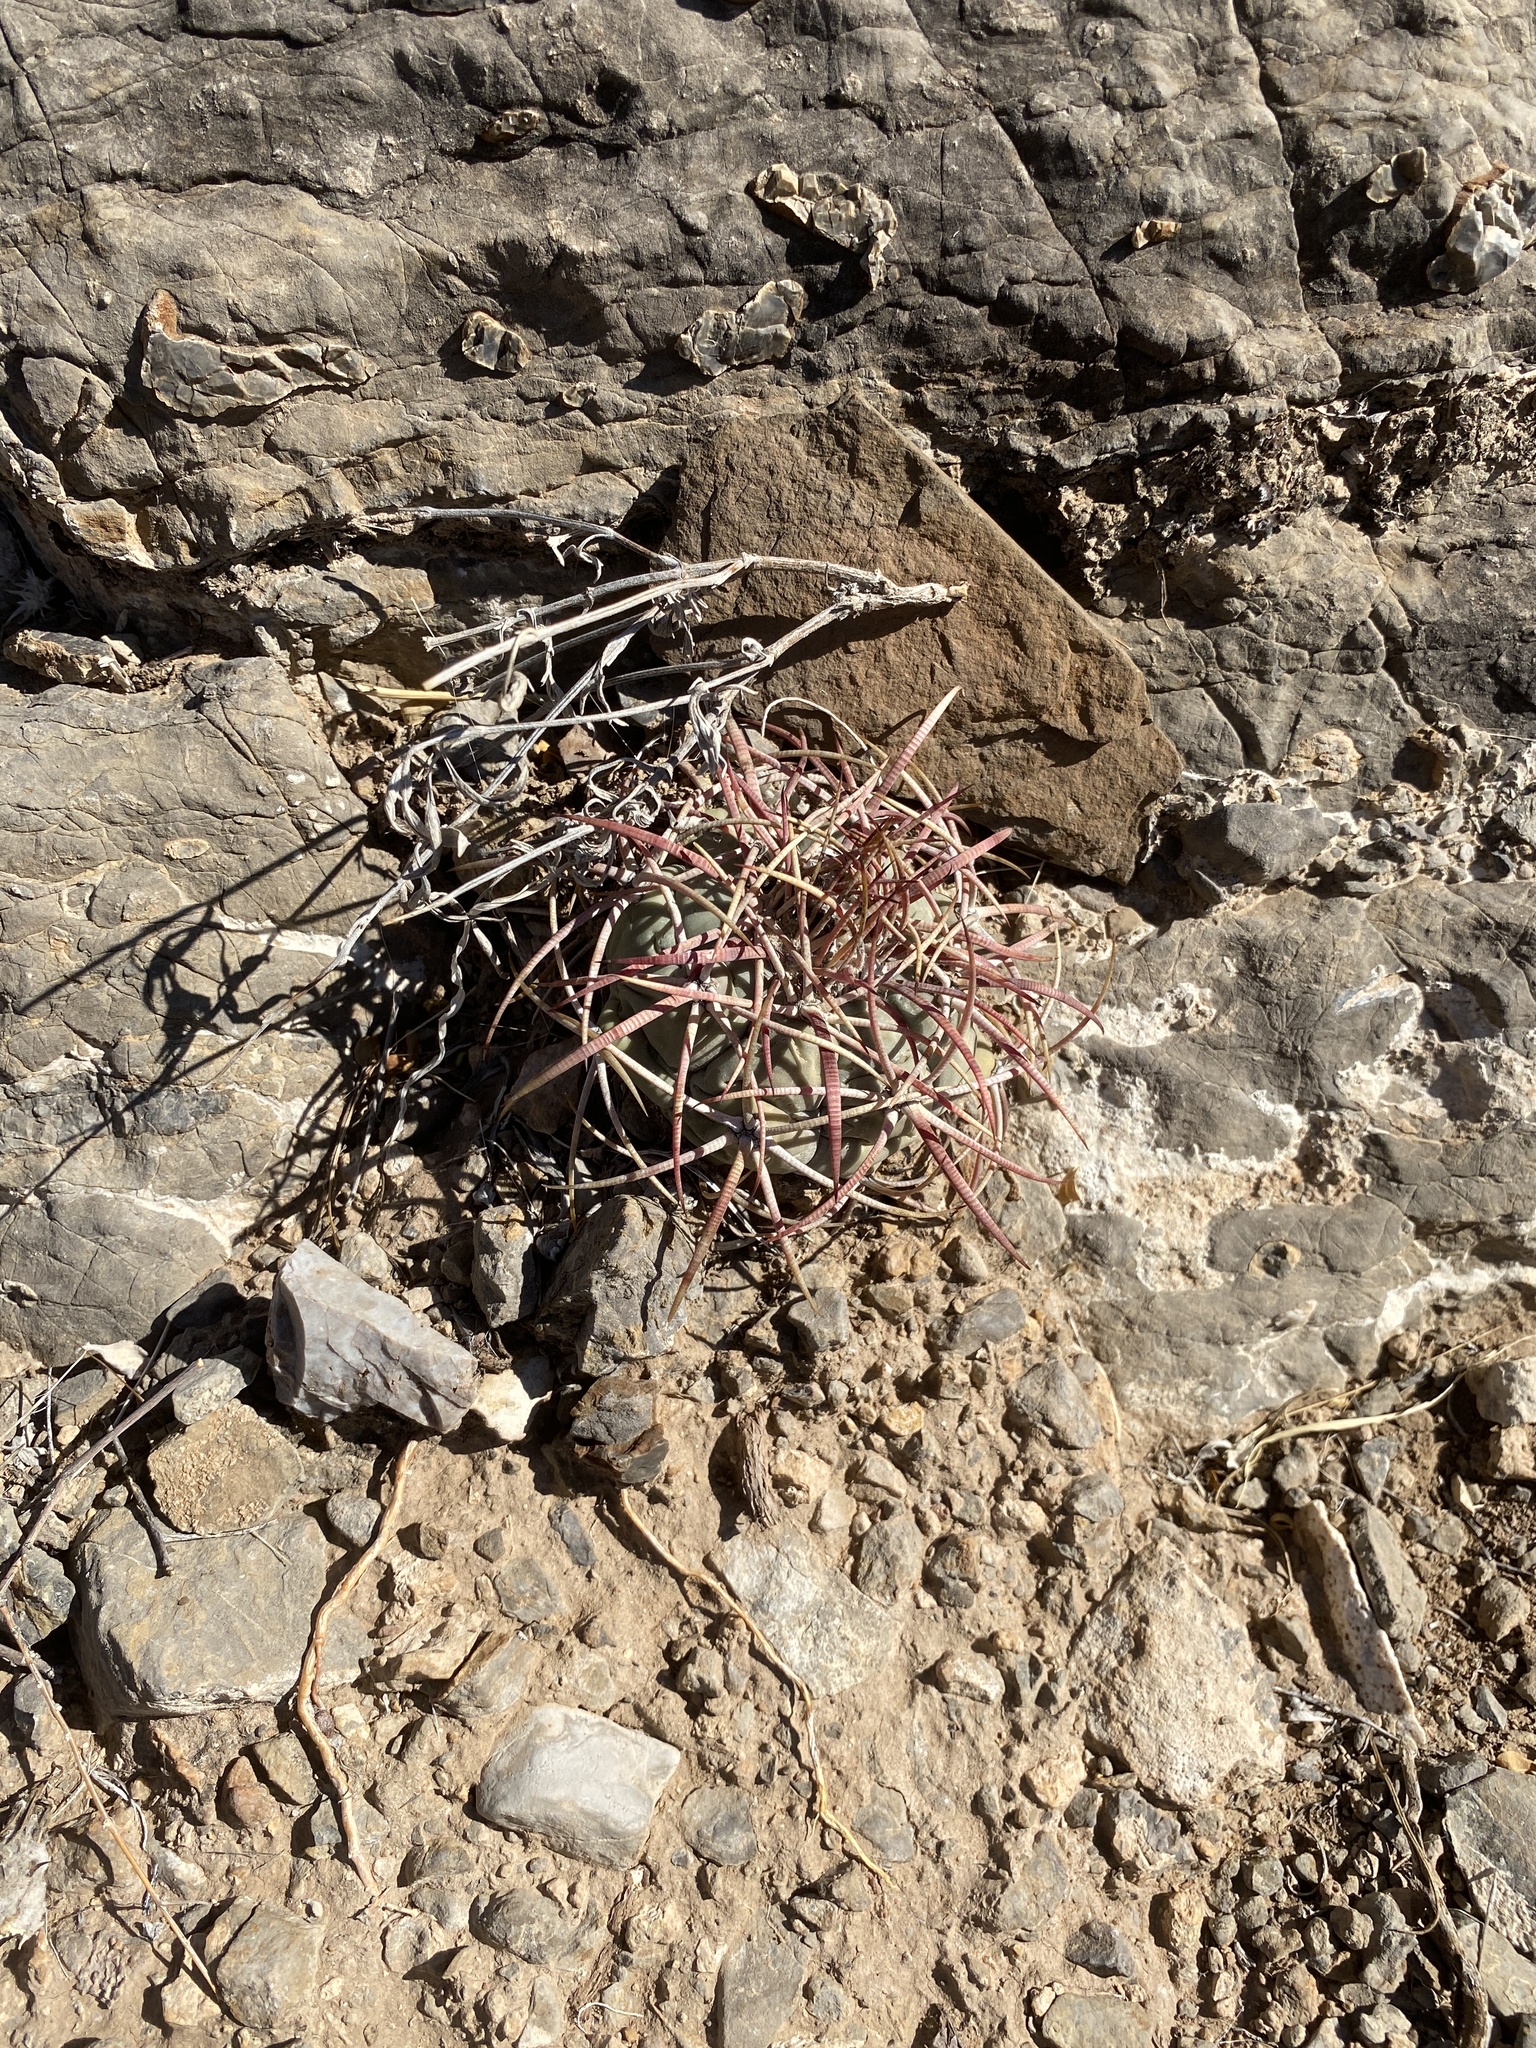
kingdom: Plantae
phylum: Tracheophyta
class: Magnoliopsida
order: Caryophyllales
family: Cactaceae
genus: Echinocactus
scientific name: Echinocactus horizonthalonius
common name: Devilshead
